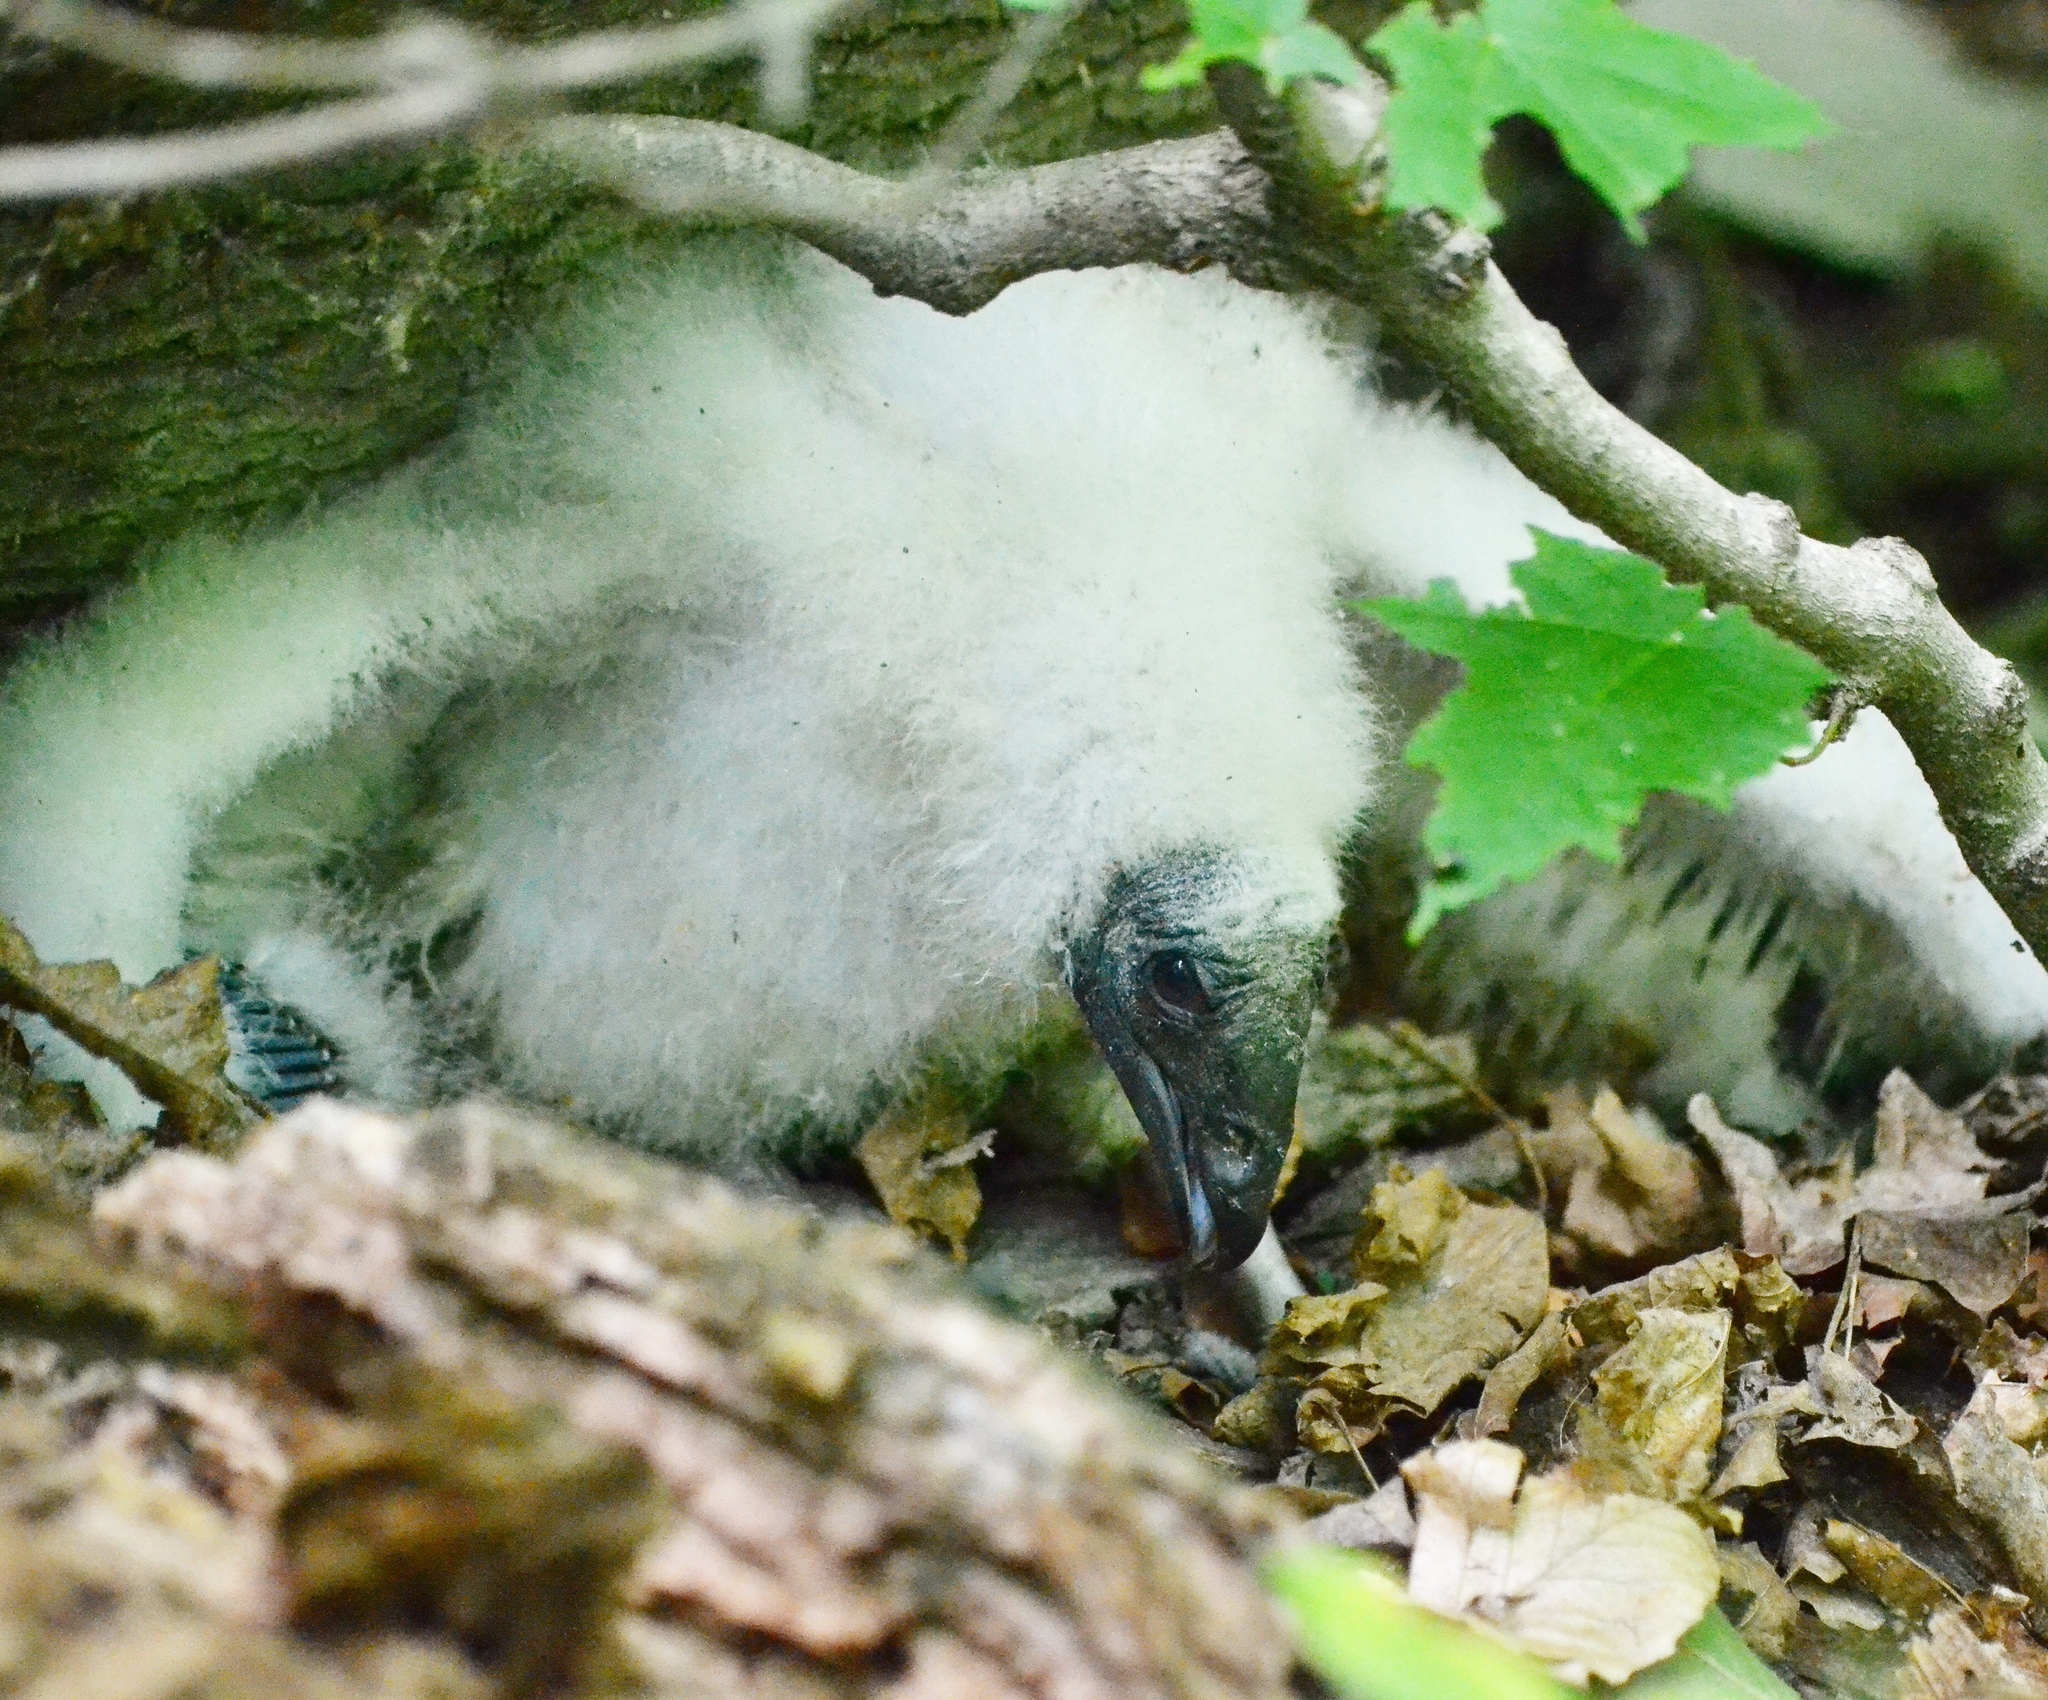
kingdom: Animalia
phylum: Chordata
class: Aves
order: Accipitriformes
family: Cathartidae
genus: Cathartes
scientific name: Cathartes aura
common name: Turkey vulture
